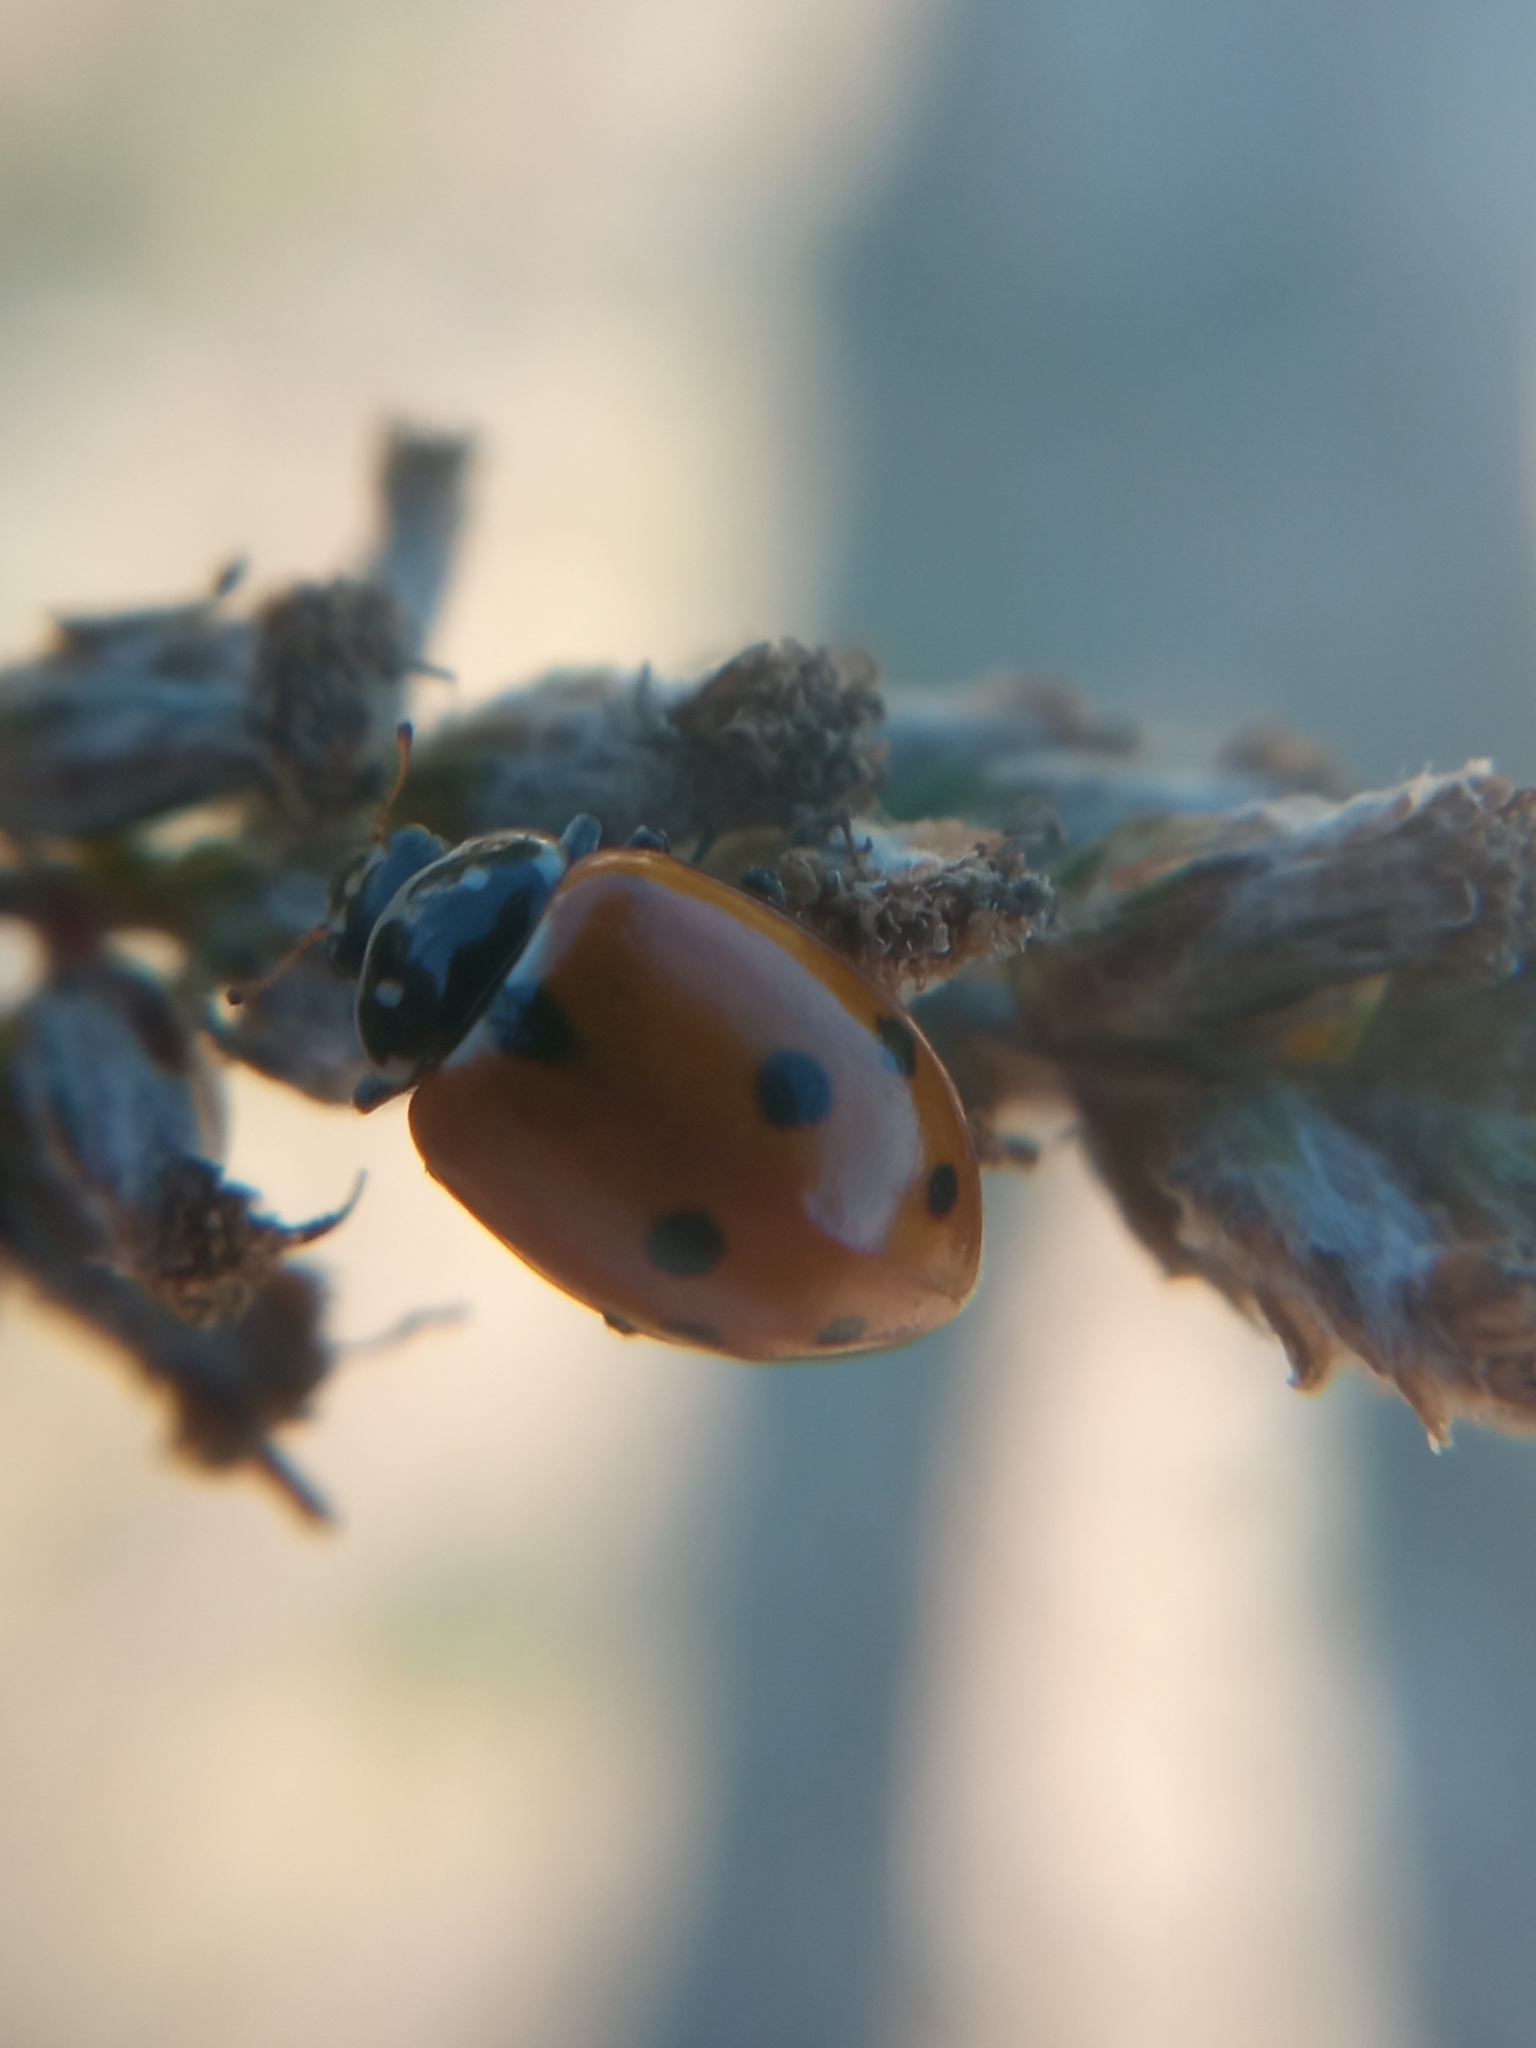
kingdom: Animalia
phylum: Arthropoda
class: Insecta
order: Coleoptera
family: Coccinellidae
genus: Hippodamia
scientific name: Hippodamia variegata
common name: Ladybird beetle
